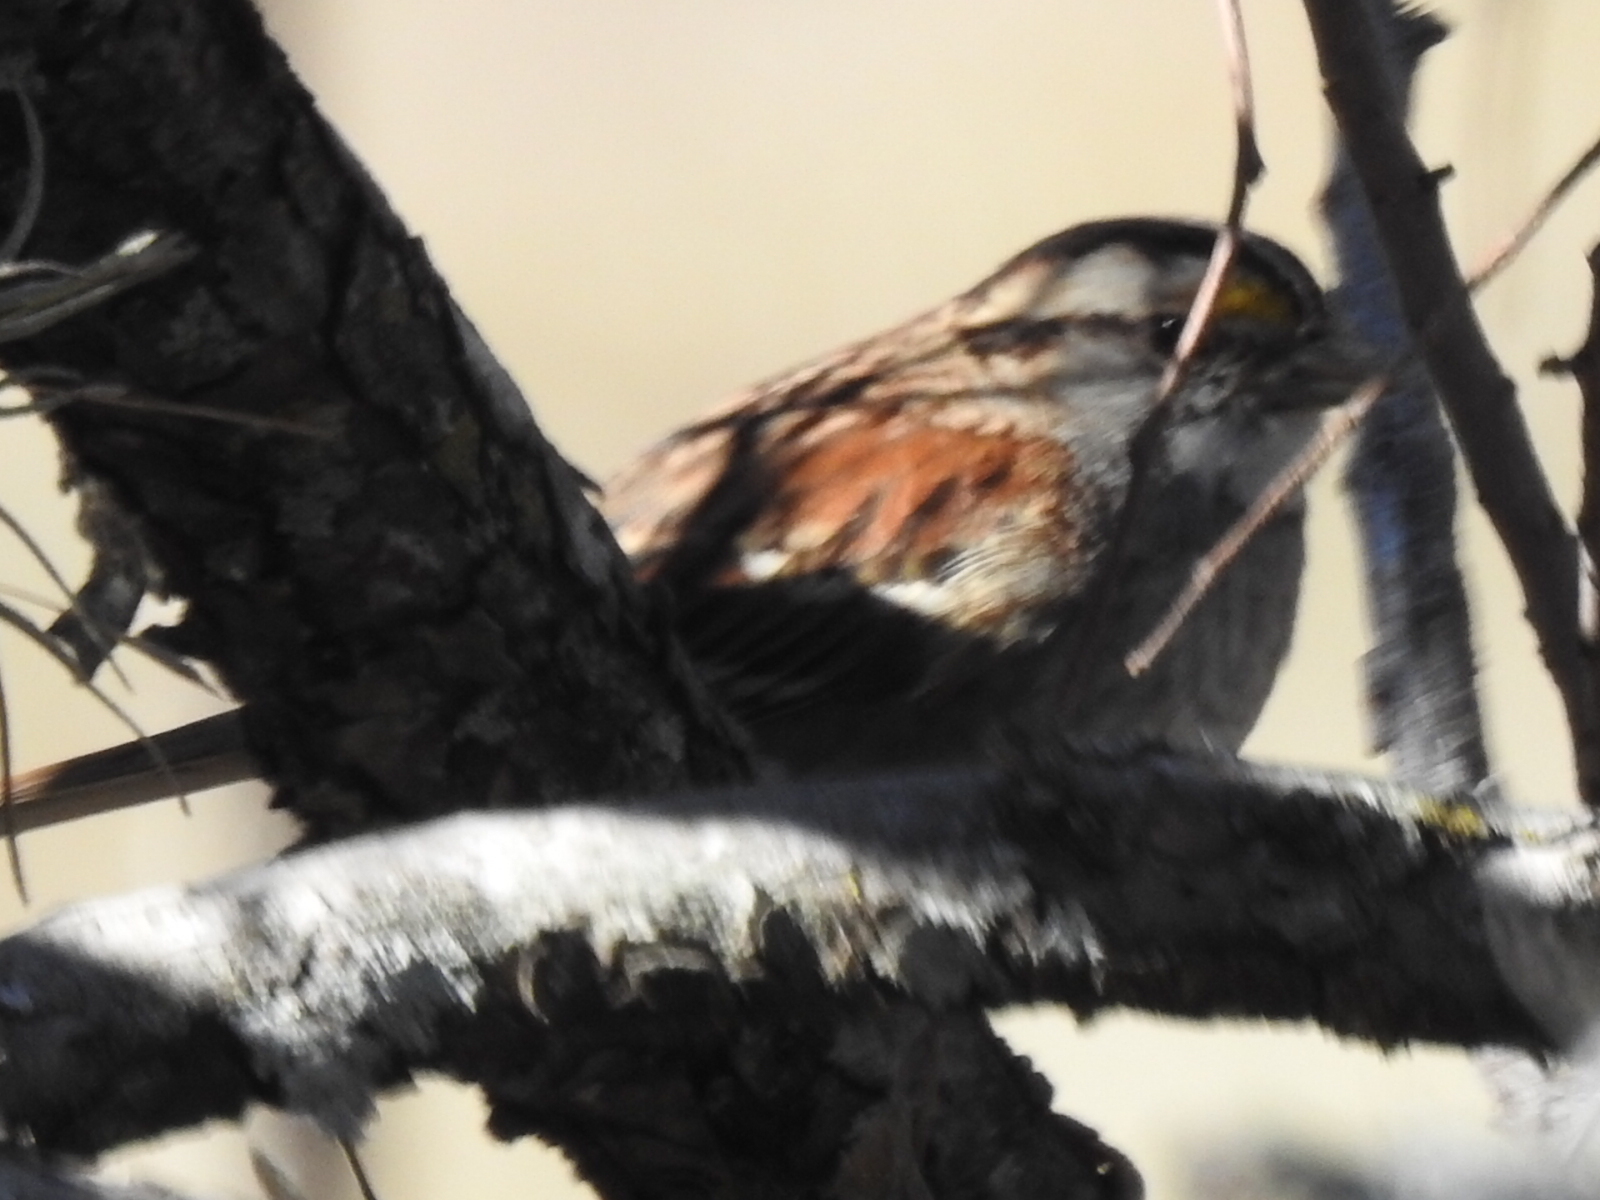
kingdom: Animalia
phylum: Chordata
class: Aves
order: Passeriformes
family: Passerellidae
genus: Zonotrichia
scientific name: Zonotrichia albicollis
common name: White-throated sparrow
